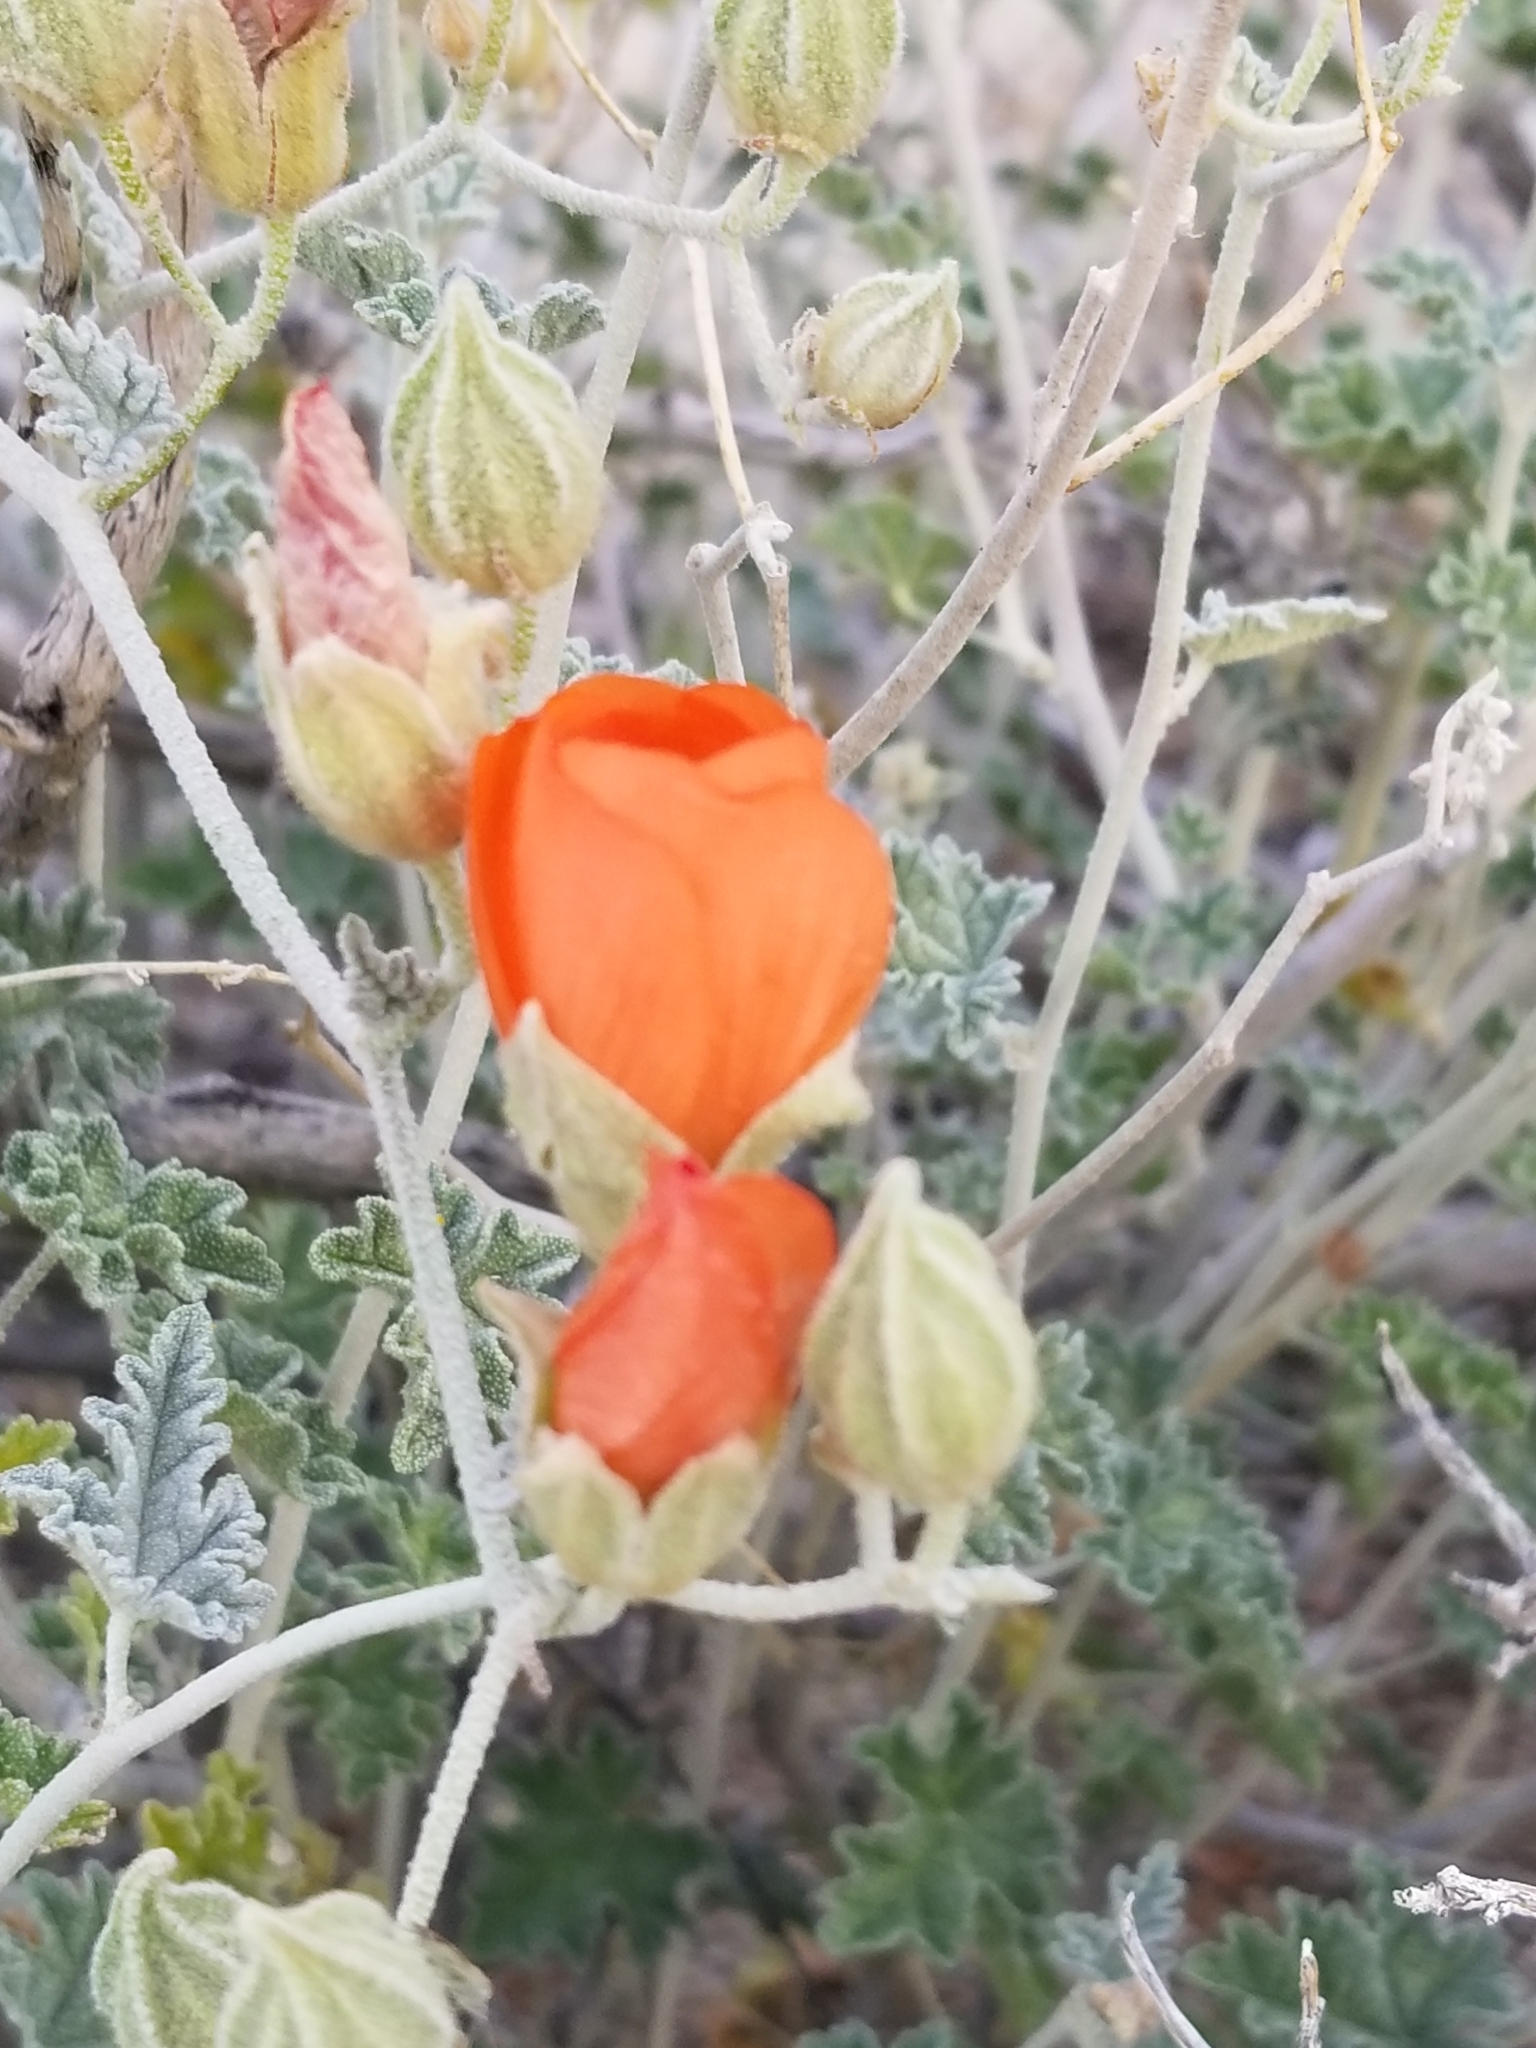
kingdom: Plantae
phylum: Tracheophyta
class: Magnoliopsida
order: Malvales
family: Malvaceae
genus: Sphaeralcea
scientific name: Sphaeralcea ambigua
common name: Apricot globe-mallow
